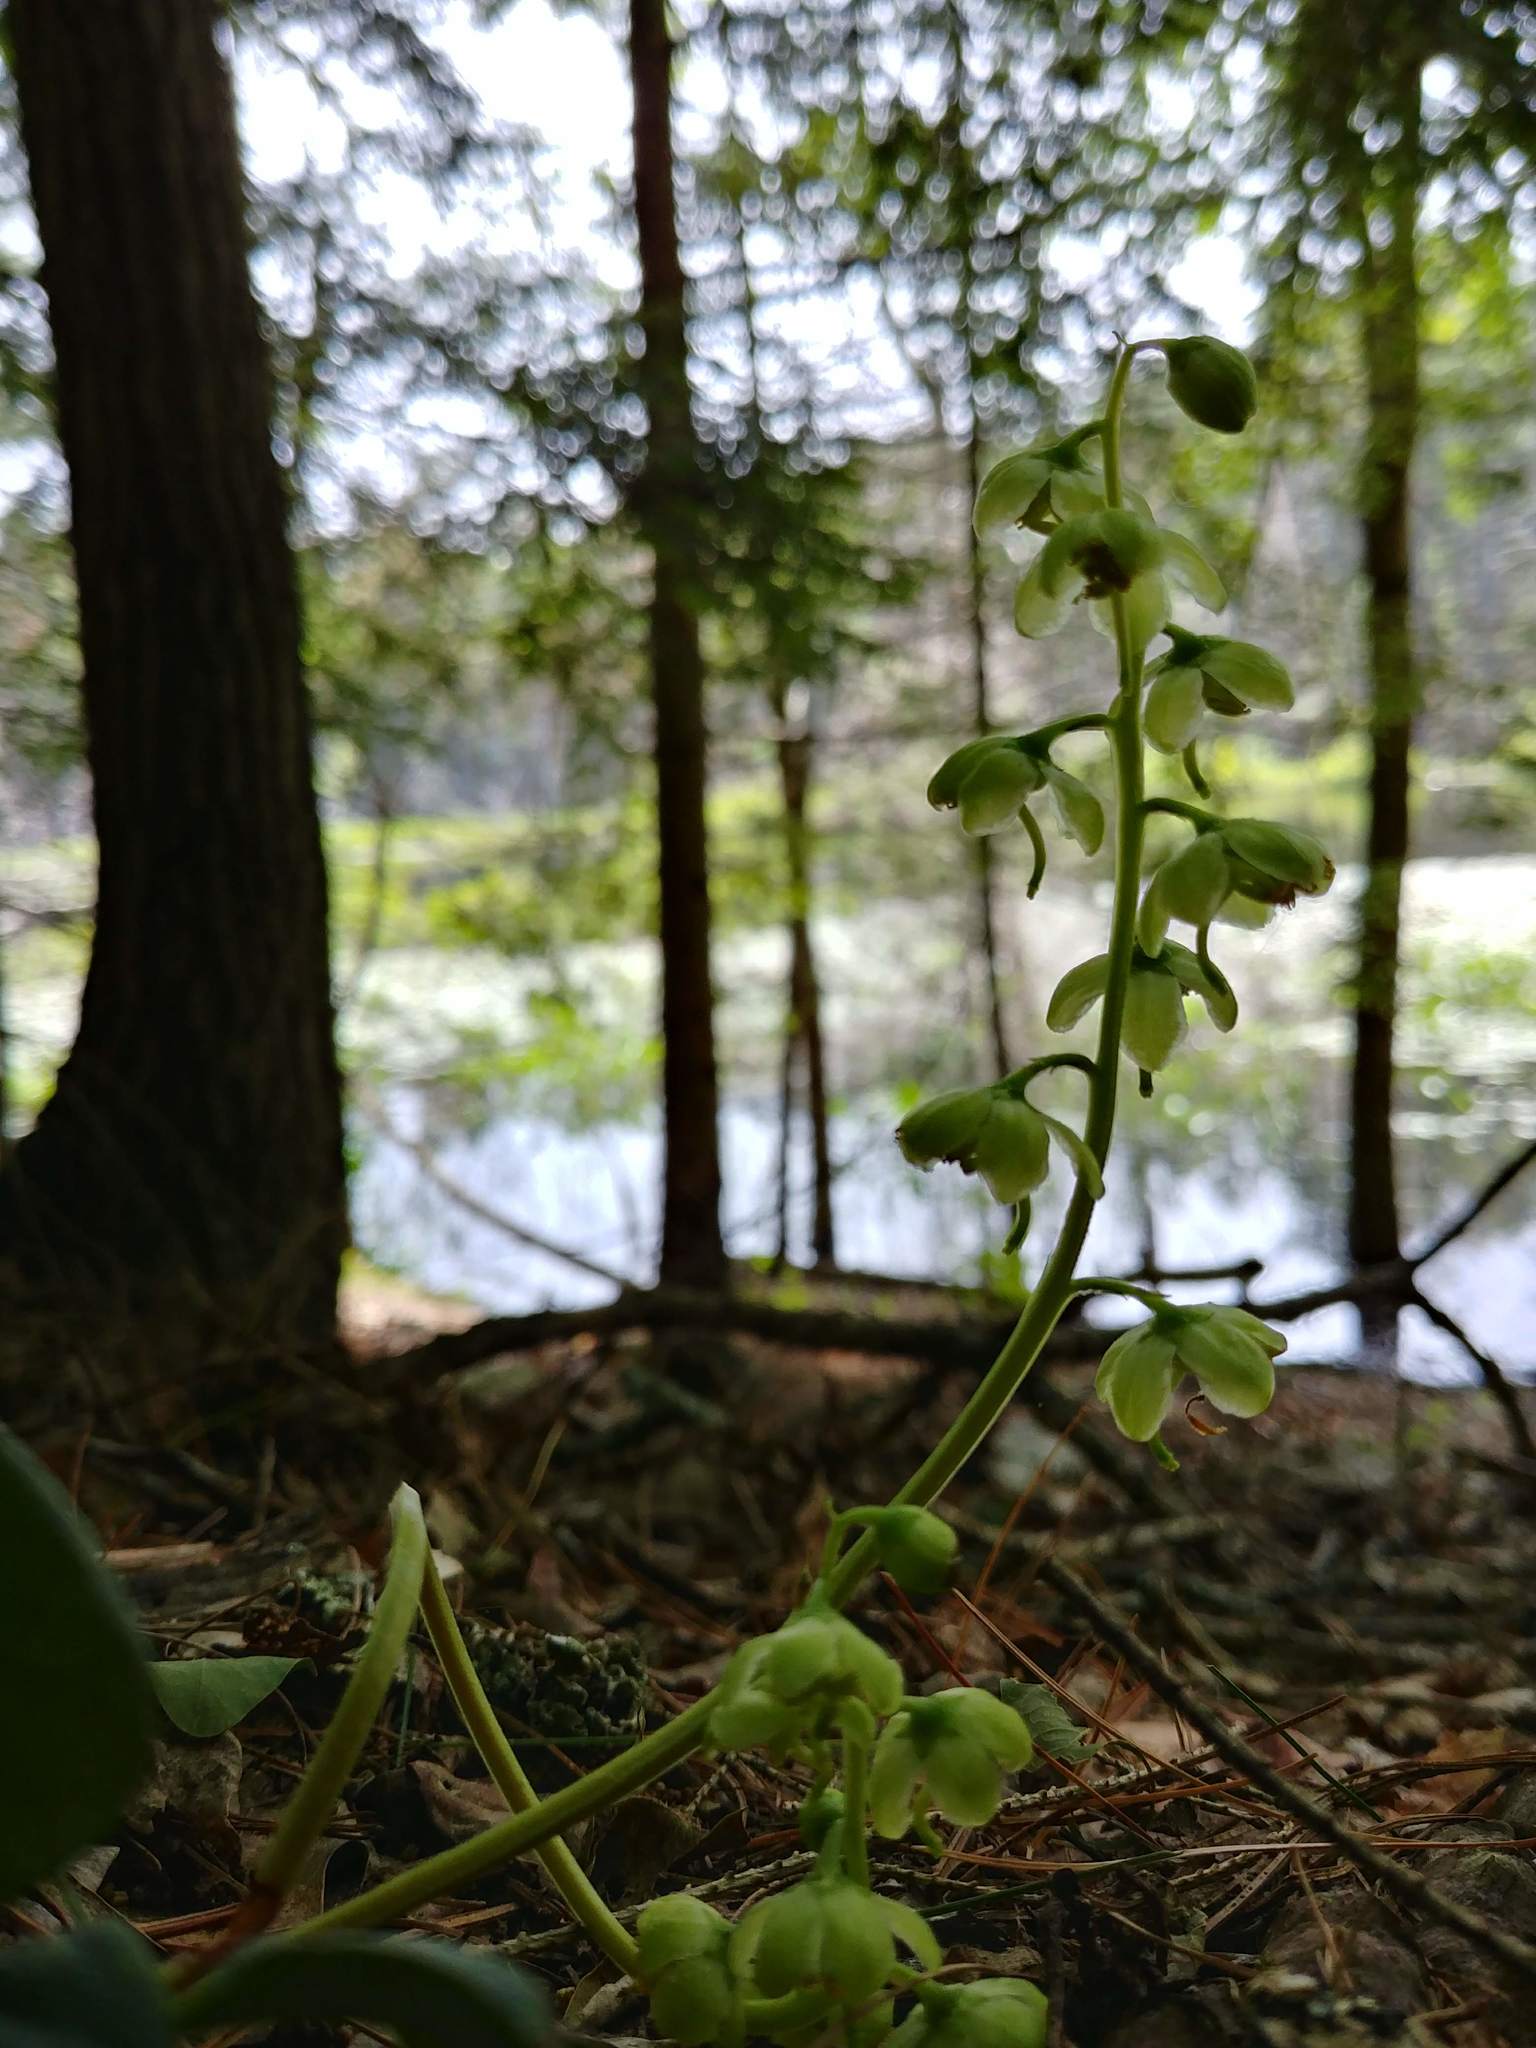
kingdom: Plantae
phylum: Tracheophyta
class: Magnoliopsida
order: Ericales
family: Ericaceae
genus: Pyrola
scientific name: Pyrola chlorantha
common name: Green wintergreen
